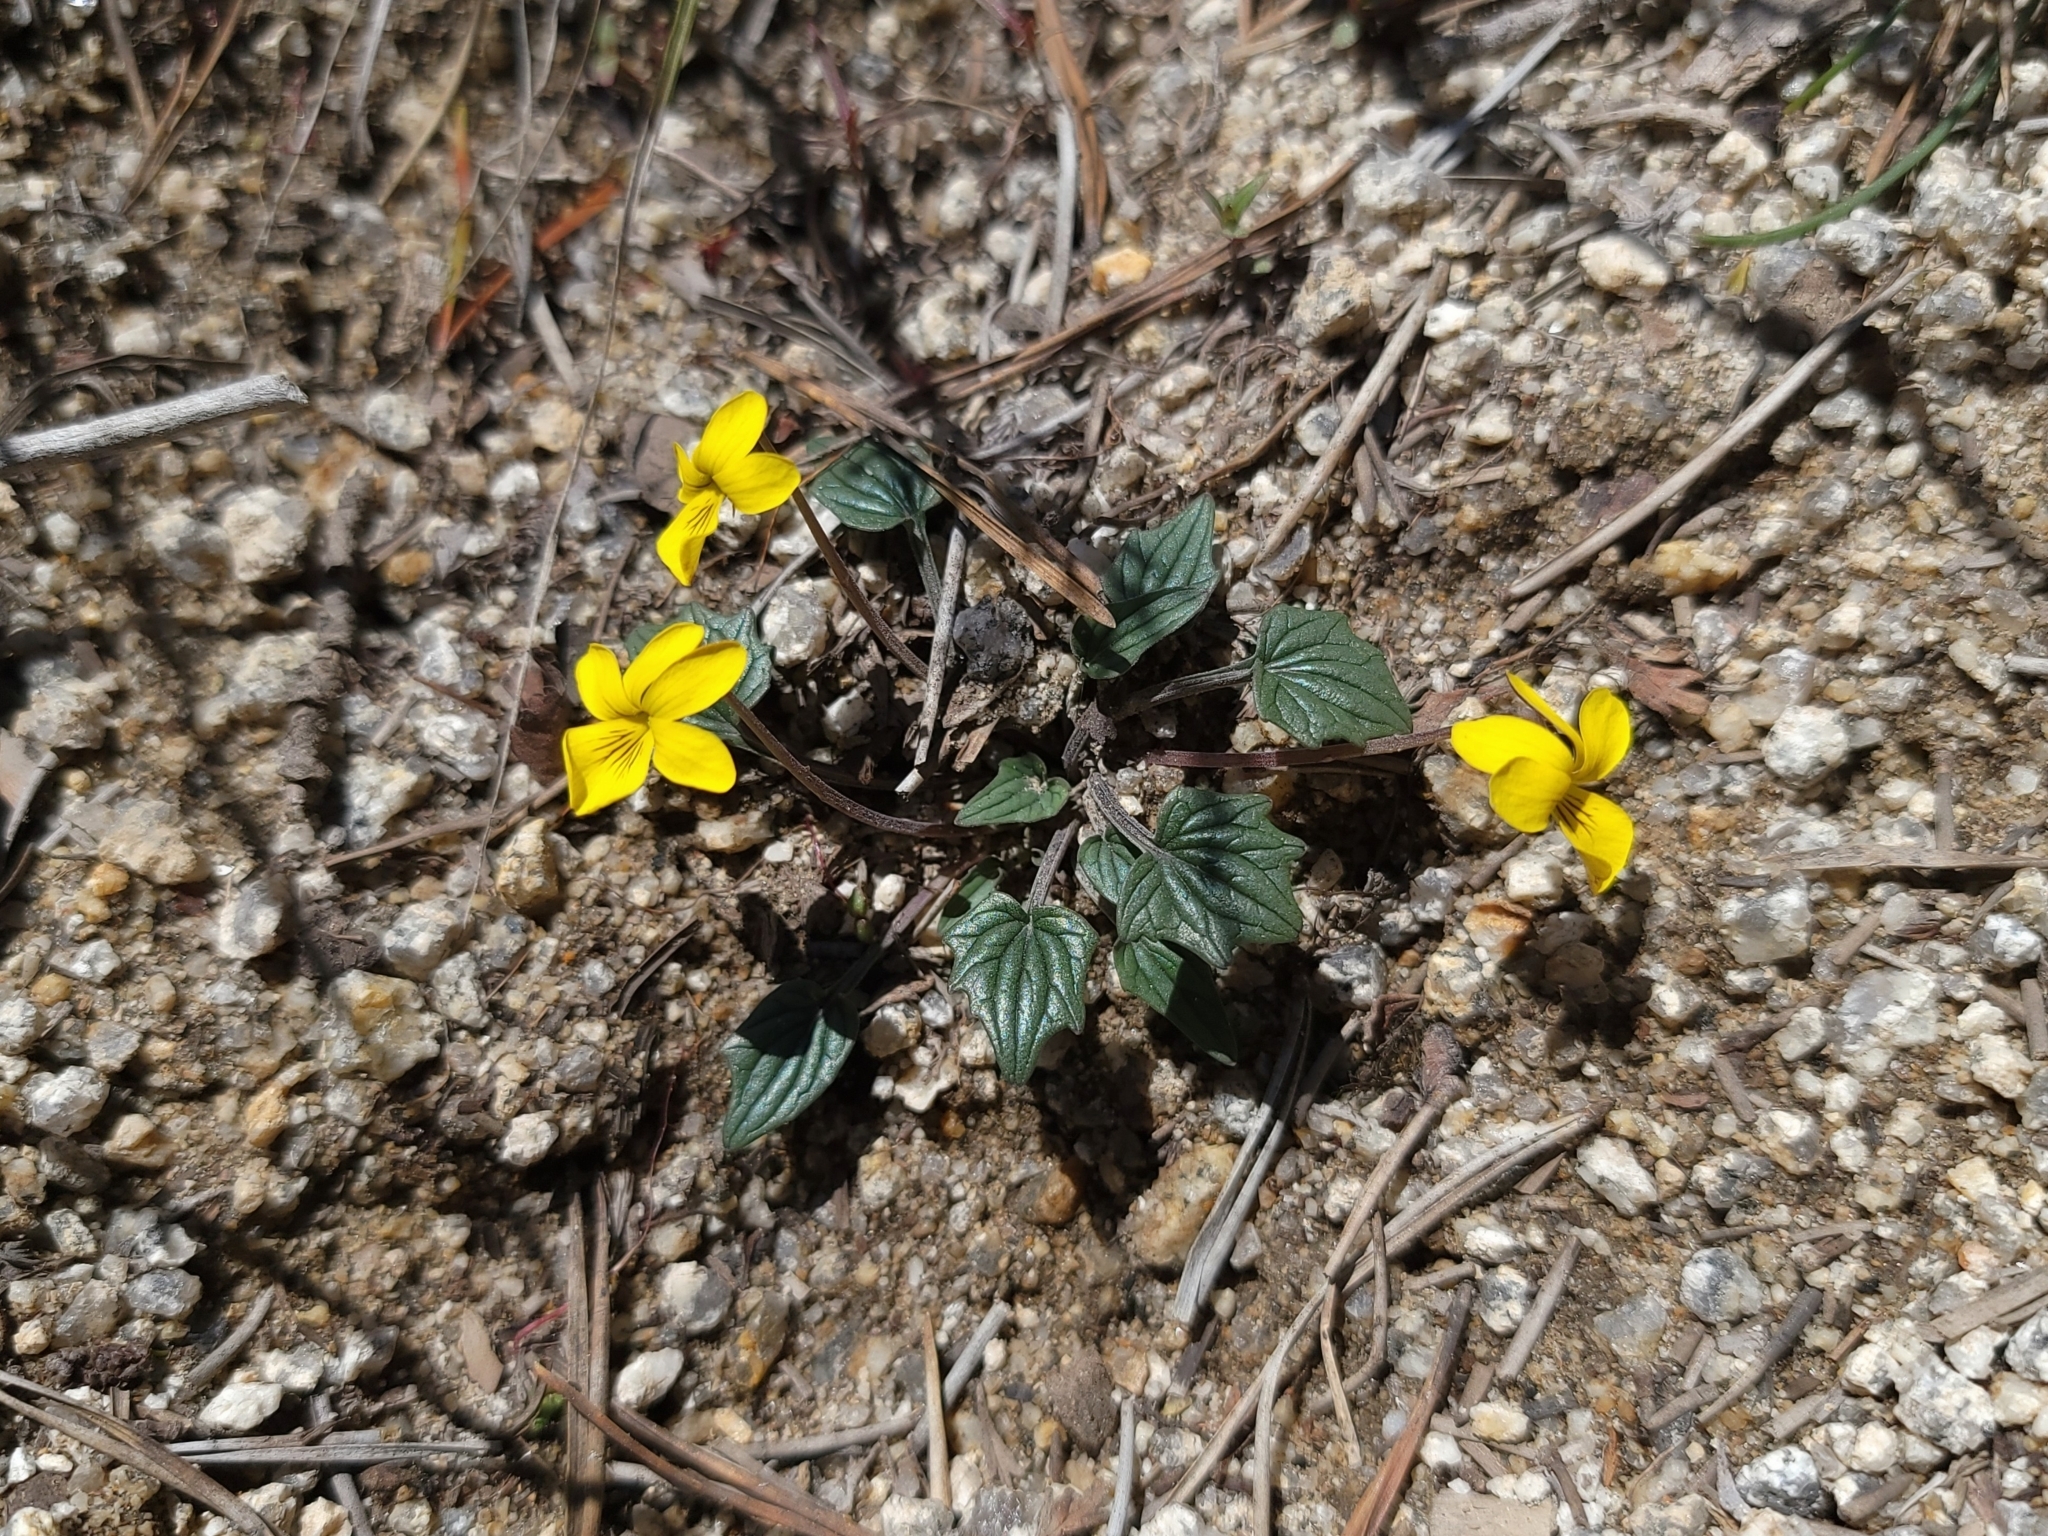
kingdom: Plantae
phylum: Tracheophyta
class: Magnoliopsida
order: Malpighiales
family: Violaceae
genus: Viola
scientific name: Viola purpurea
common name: Pine violet
